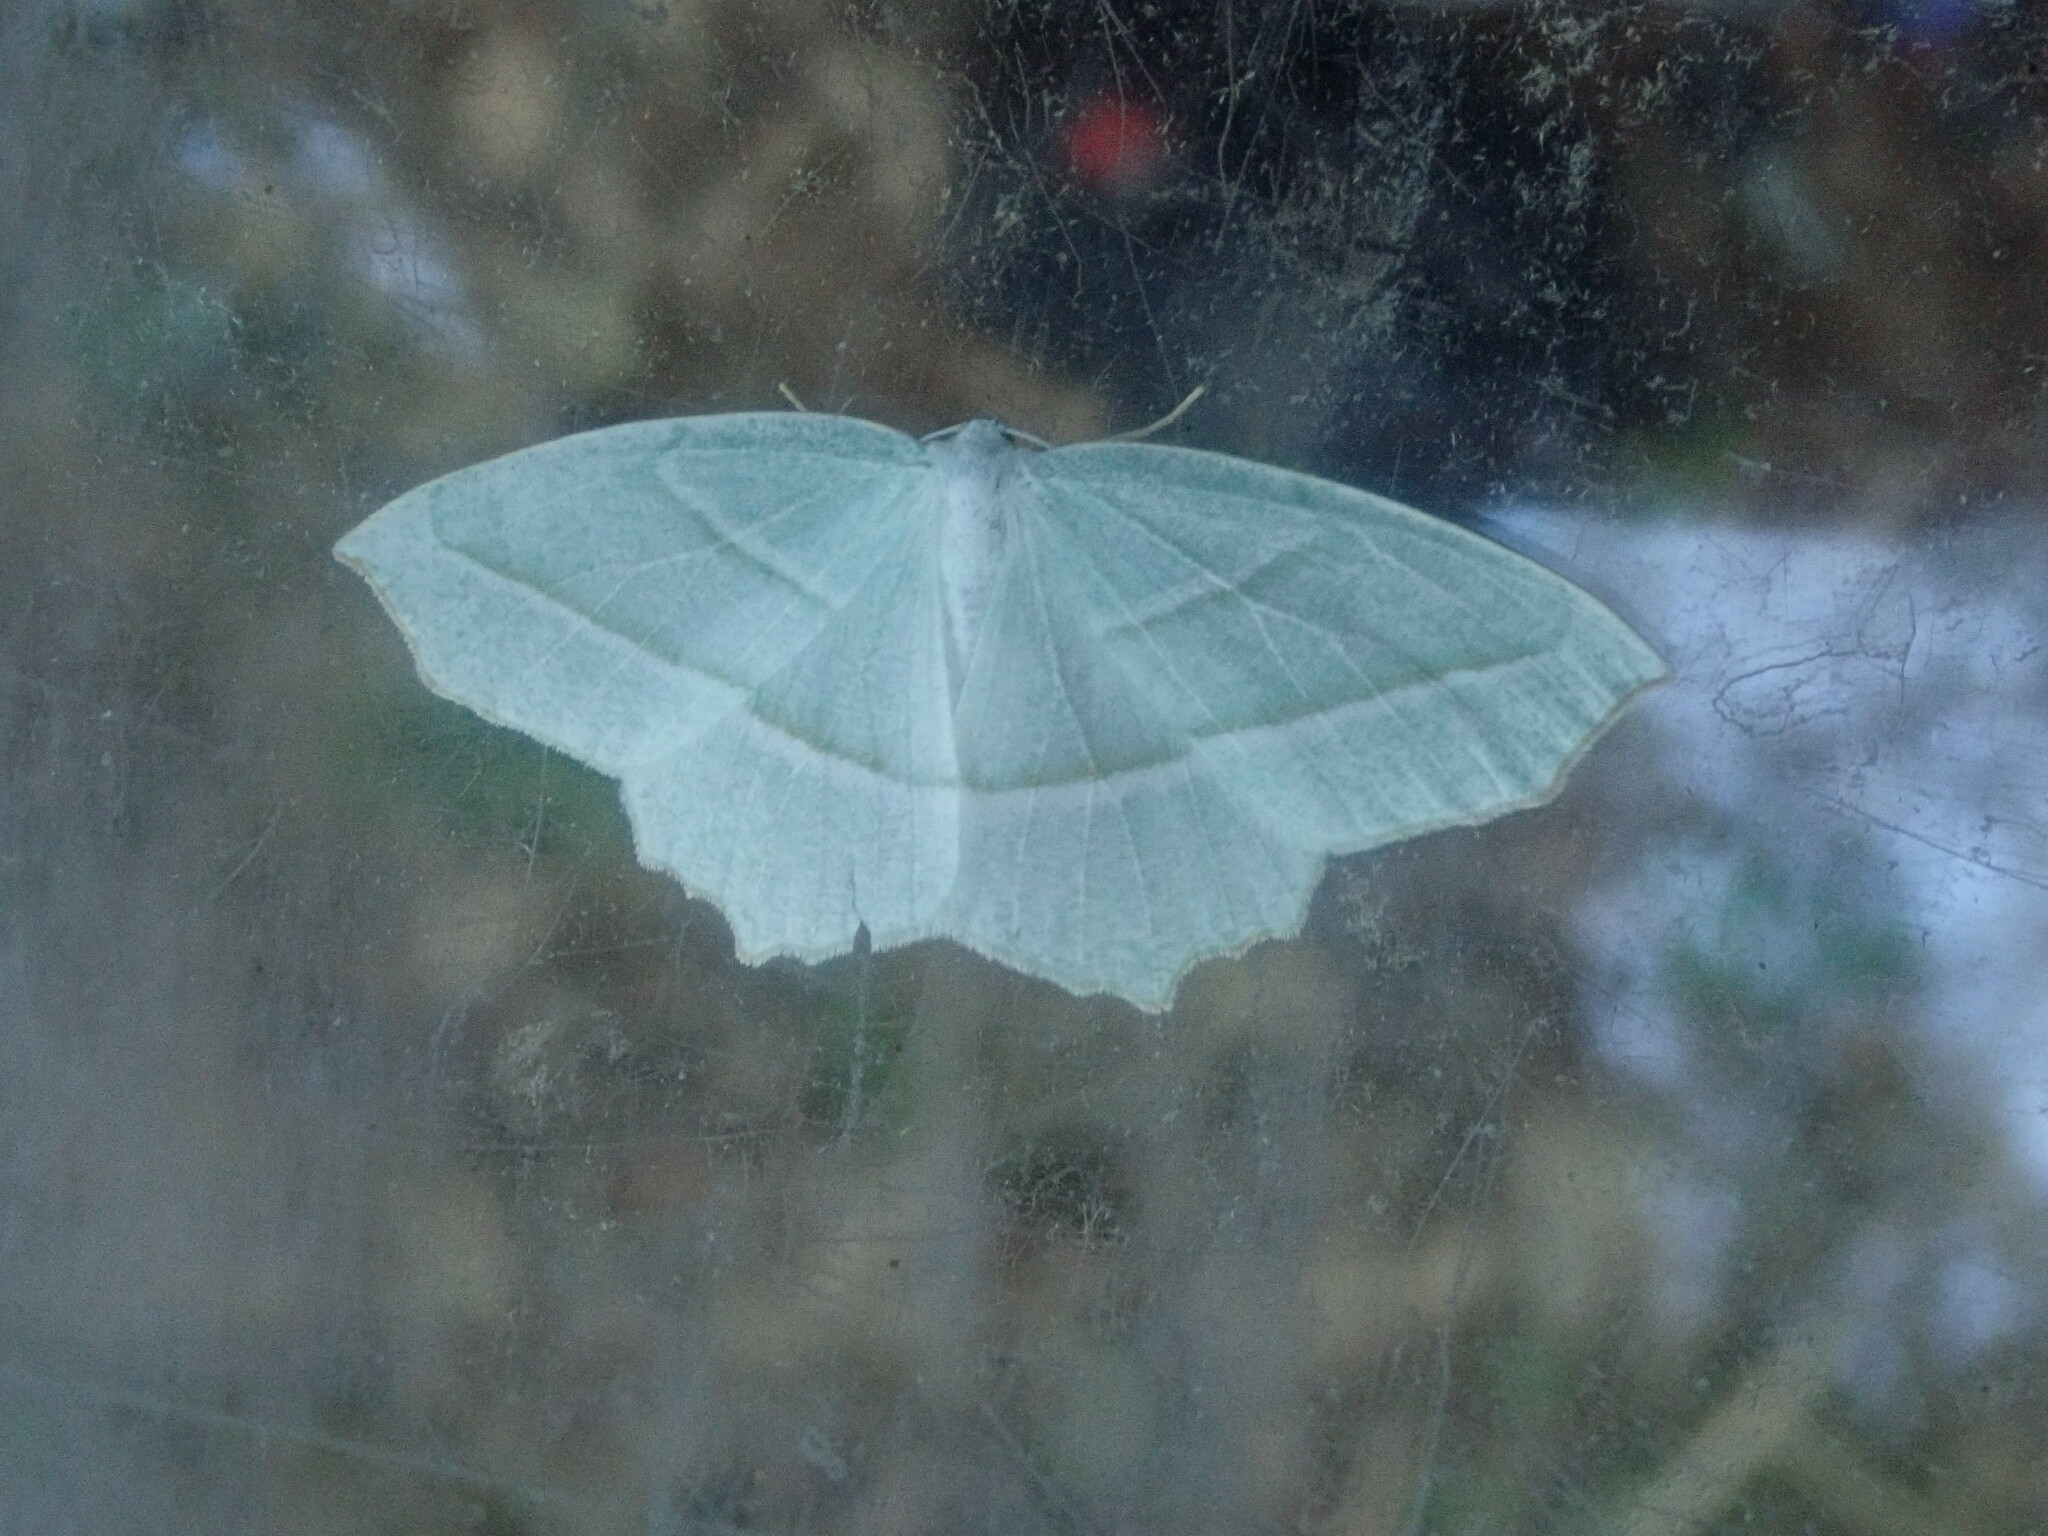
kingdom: Animalia
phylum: Arthropoda
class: Insecta
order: Lepidoptera
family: Geometridae
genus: Campaea
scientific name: Campaea perlata
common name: Fringed looper
